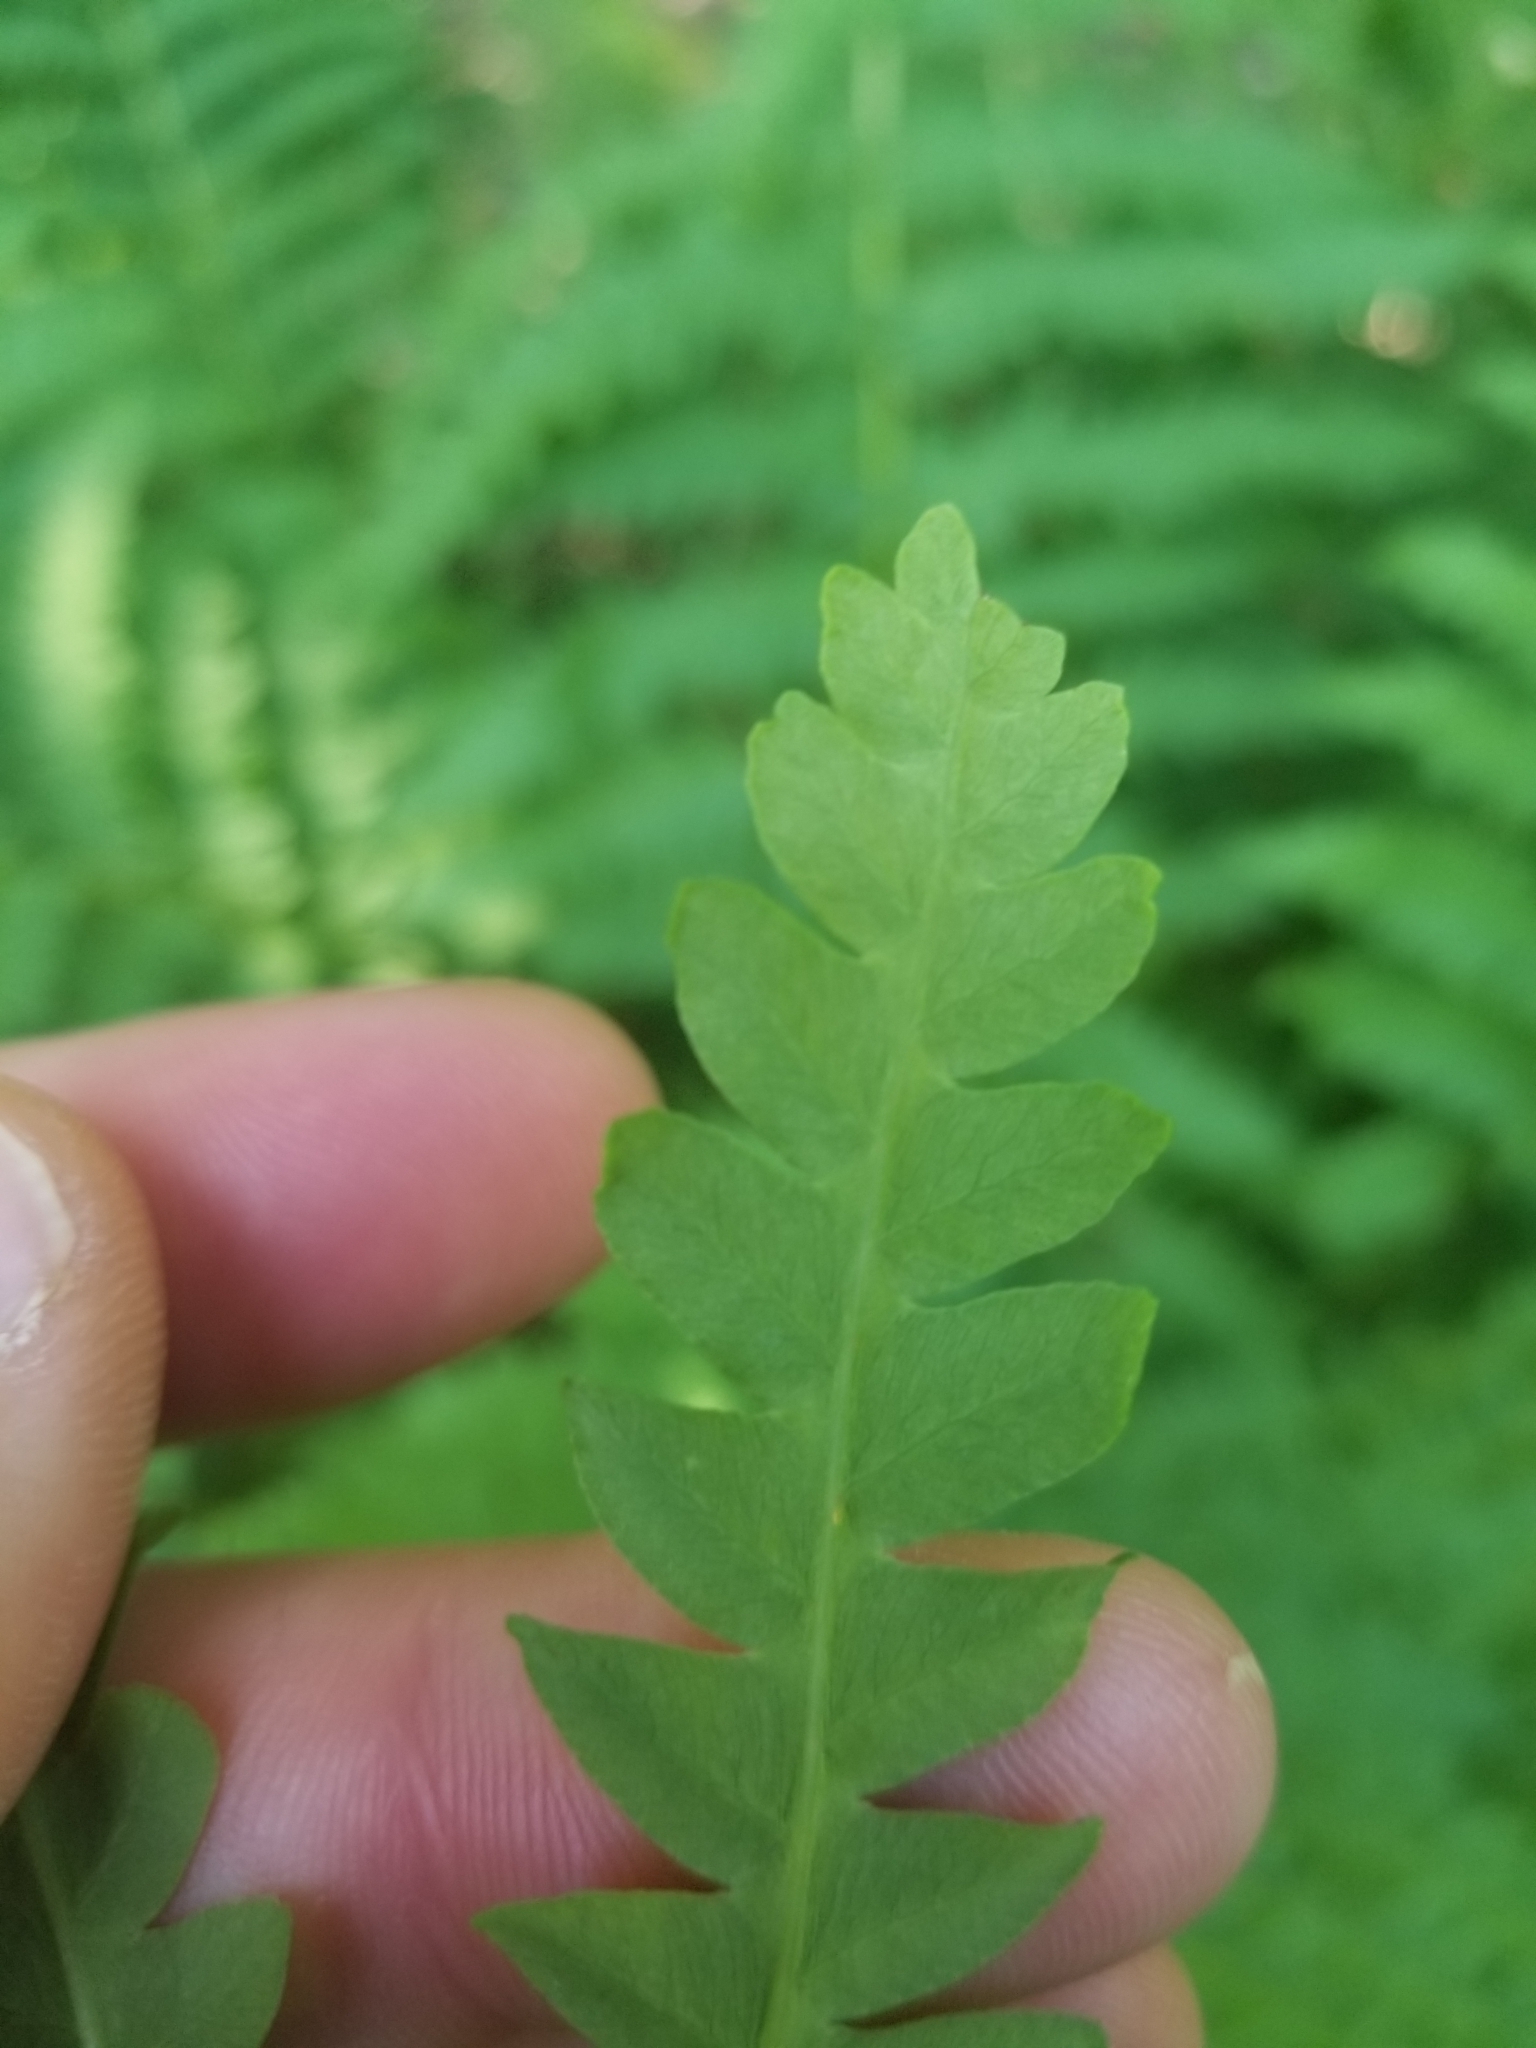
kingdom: Plantae
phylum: Tracheophyta
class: Polypodiopsida
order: Osmundales
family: Osmundaceae
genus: Claytosmunda
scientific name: Claytosmunda claytoniana
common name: Clayton's fern
